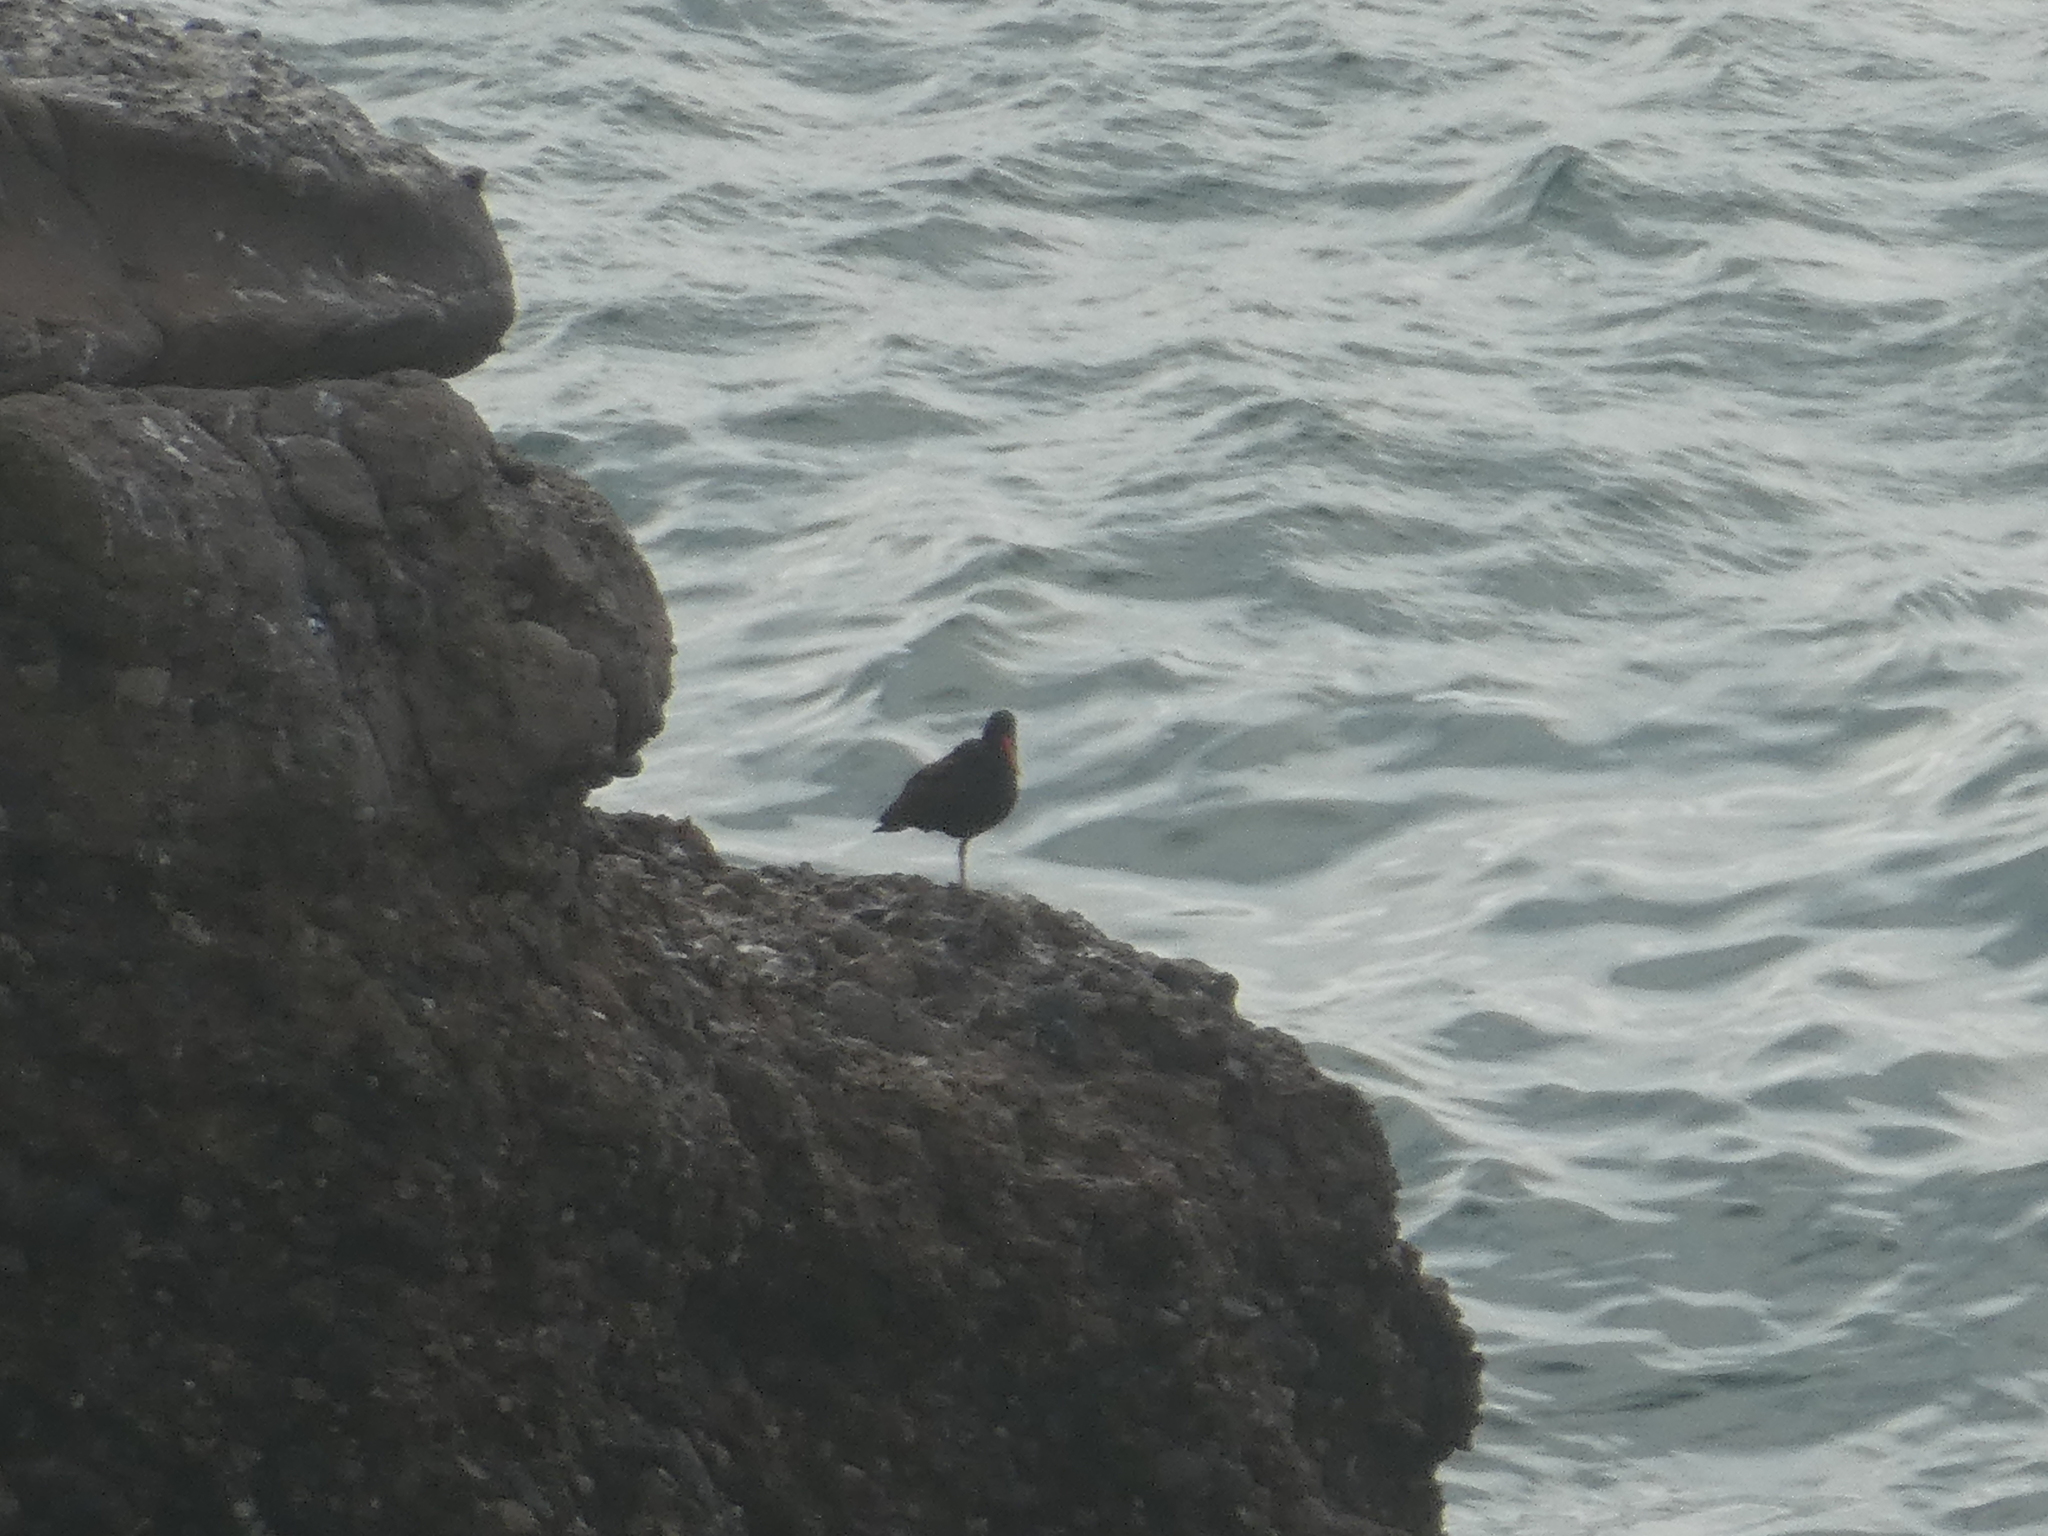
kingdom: Animalia
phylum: Chordata
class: Aves
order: Charadriiformes
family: Haematopodidae
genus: Haematopus
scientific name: Haematopus bachmani
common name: Black oystercatcher
